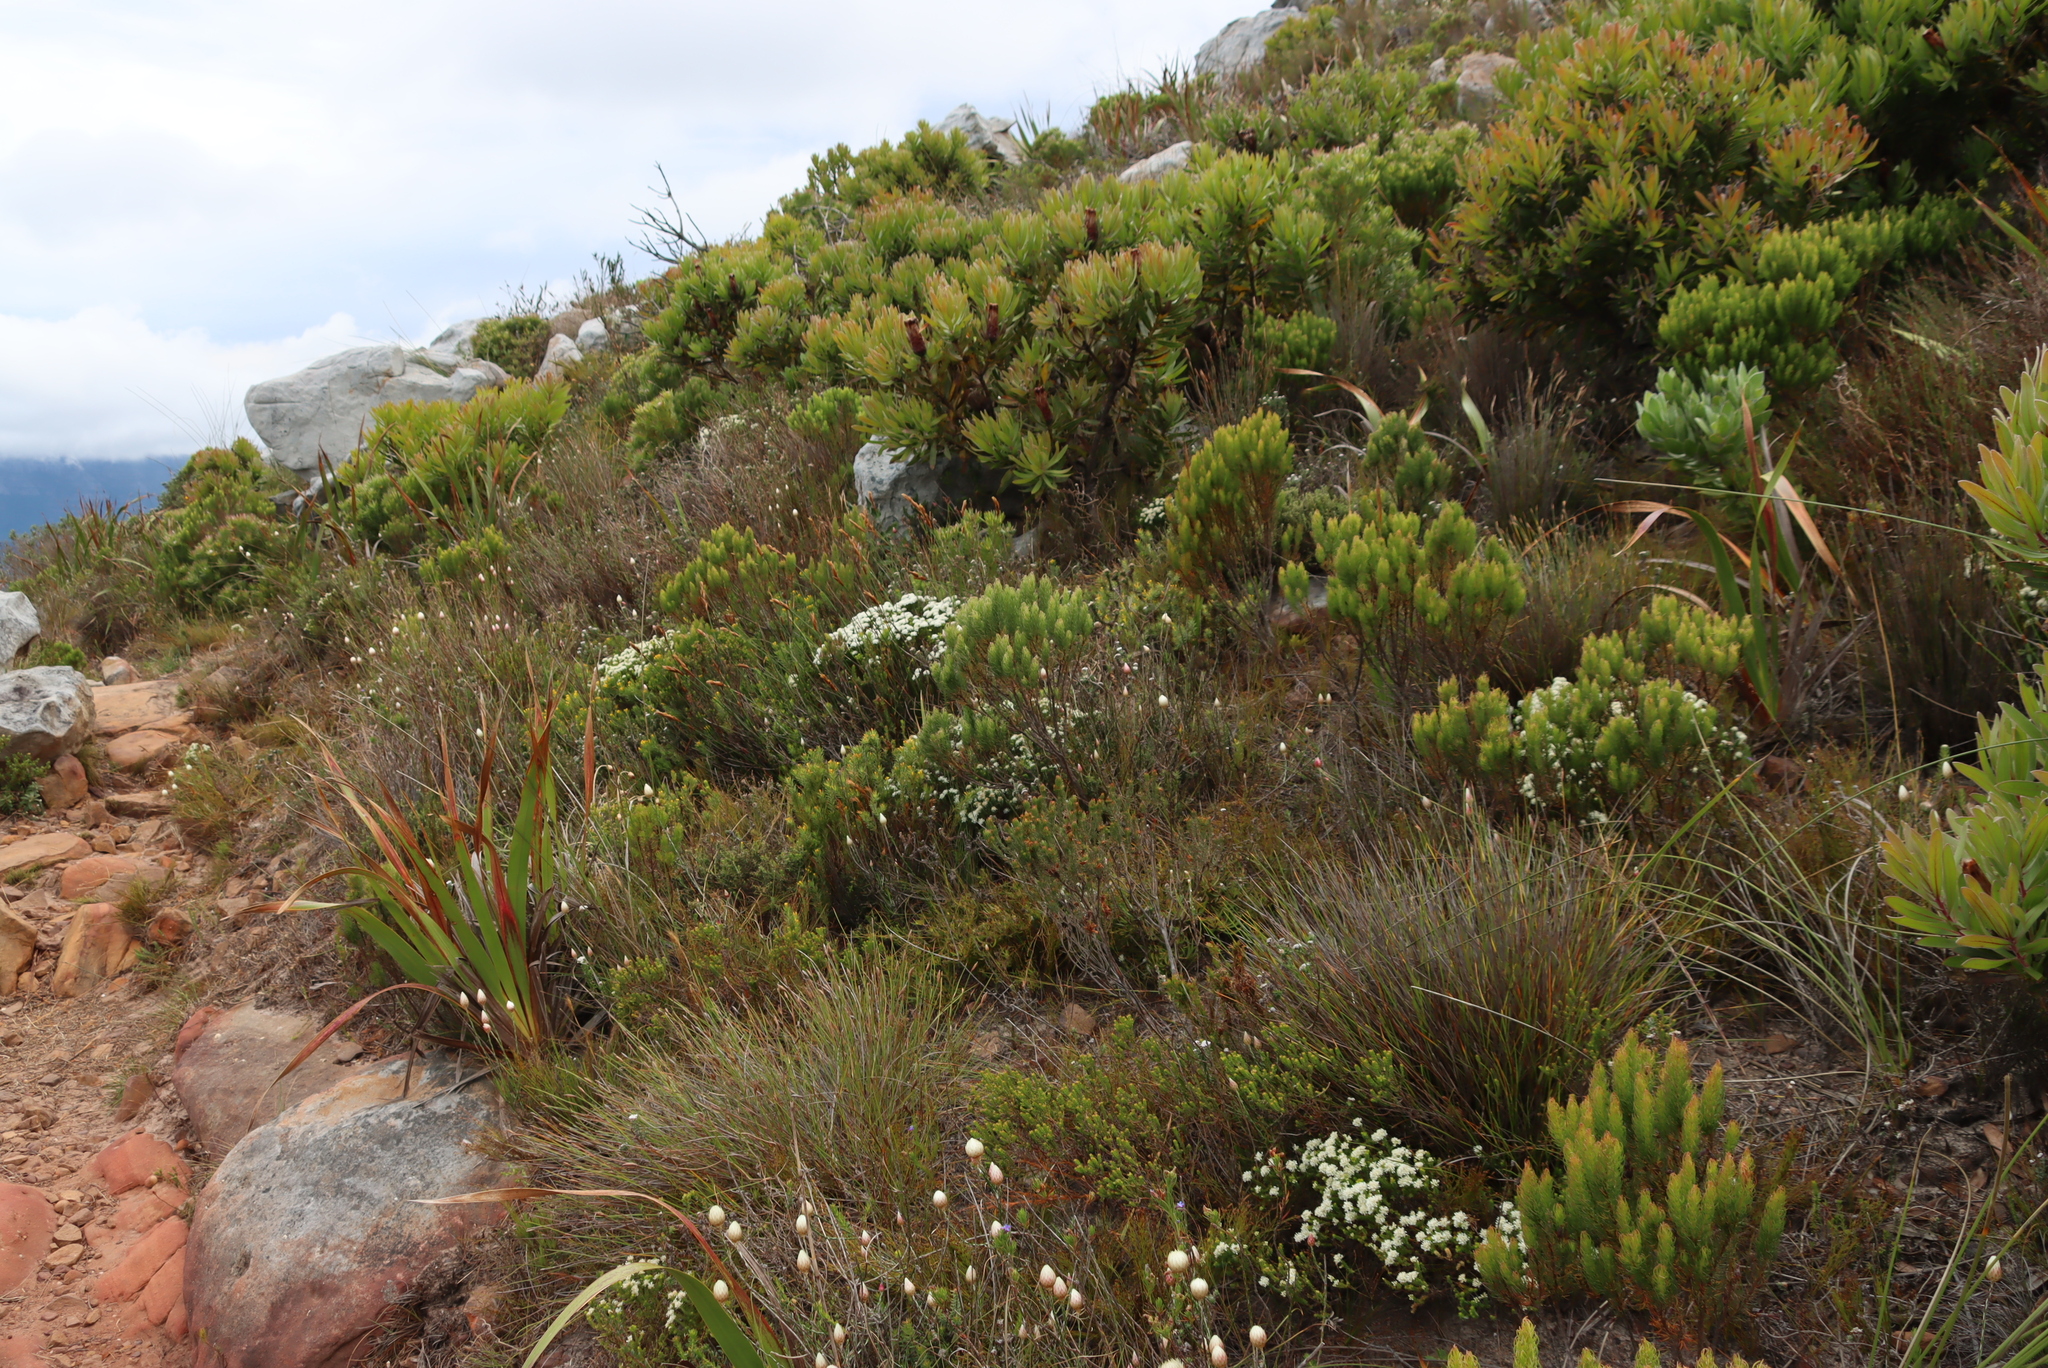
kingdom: Plantae
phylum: Tracheophyta
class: Magnoliopsida
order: Proteales
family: Proteaceae
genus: Leucadendron
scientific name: Leucadendron xanthoconus
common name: Sickle-leaf conebush
